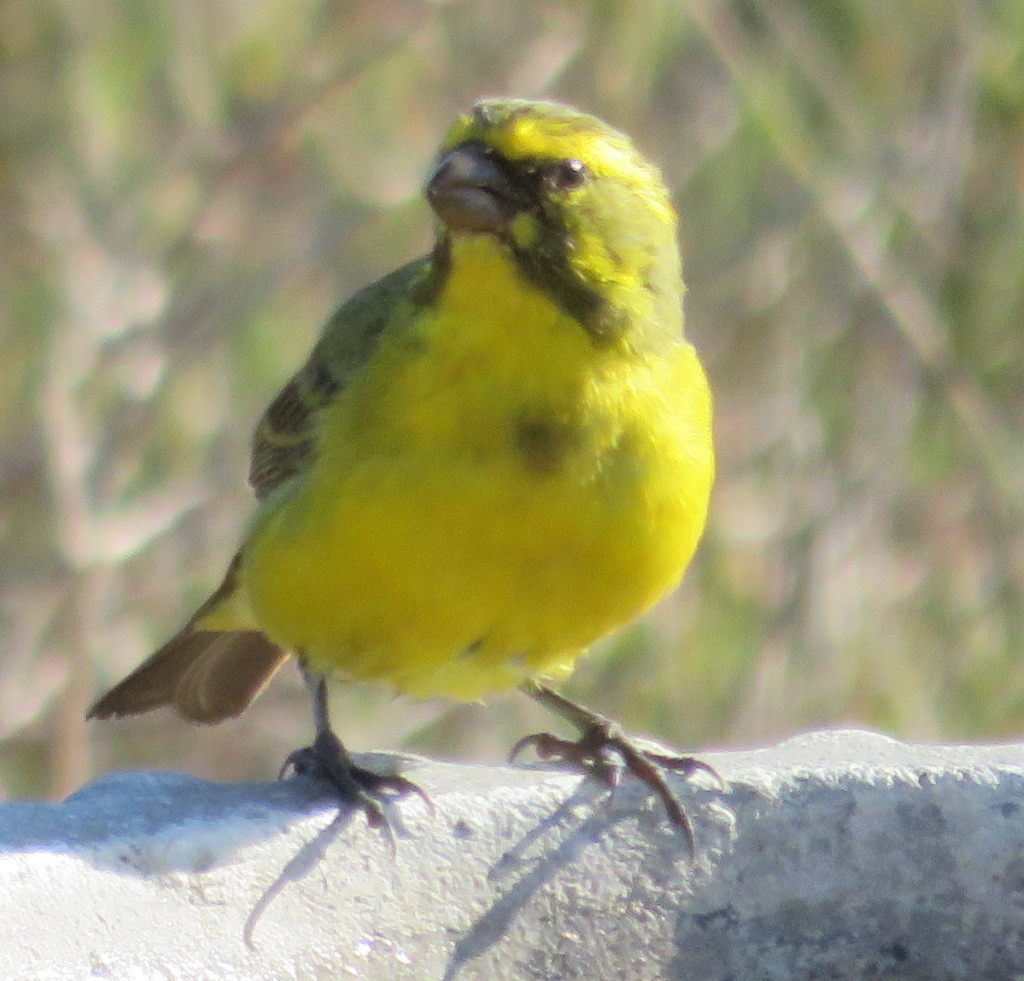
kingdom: Animalia
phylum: Chordata
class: Aves
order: Passeriformes
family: Fringillidae
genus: Crithagra
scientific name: Crithagra flaviventris
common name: Yellow canary
